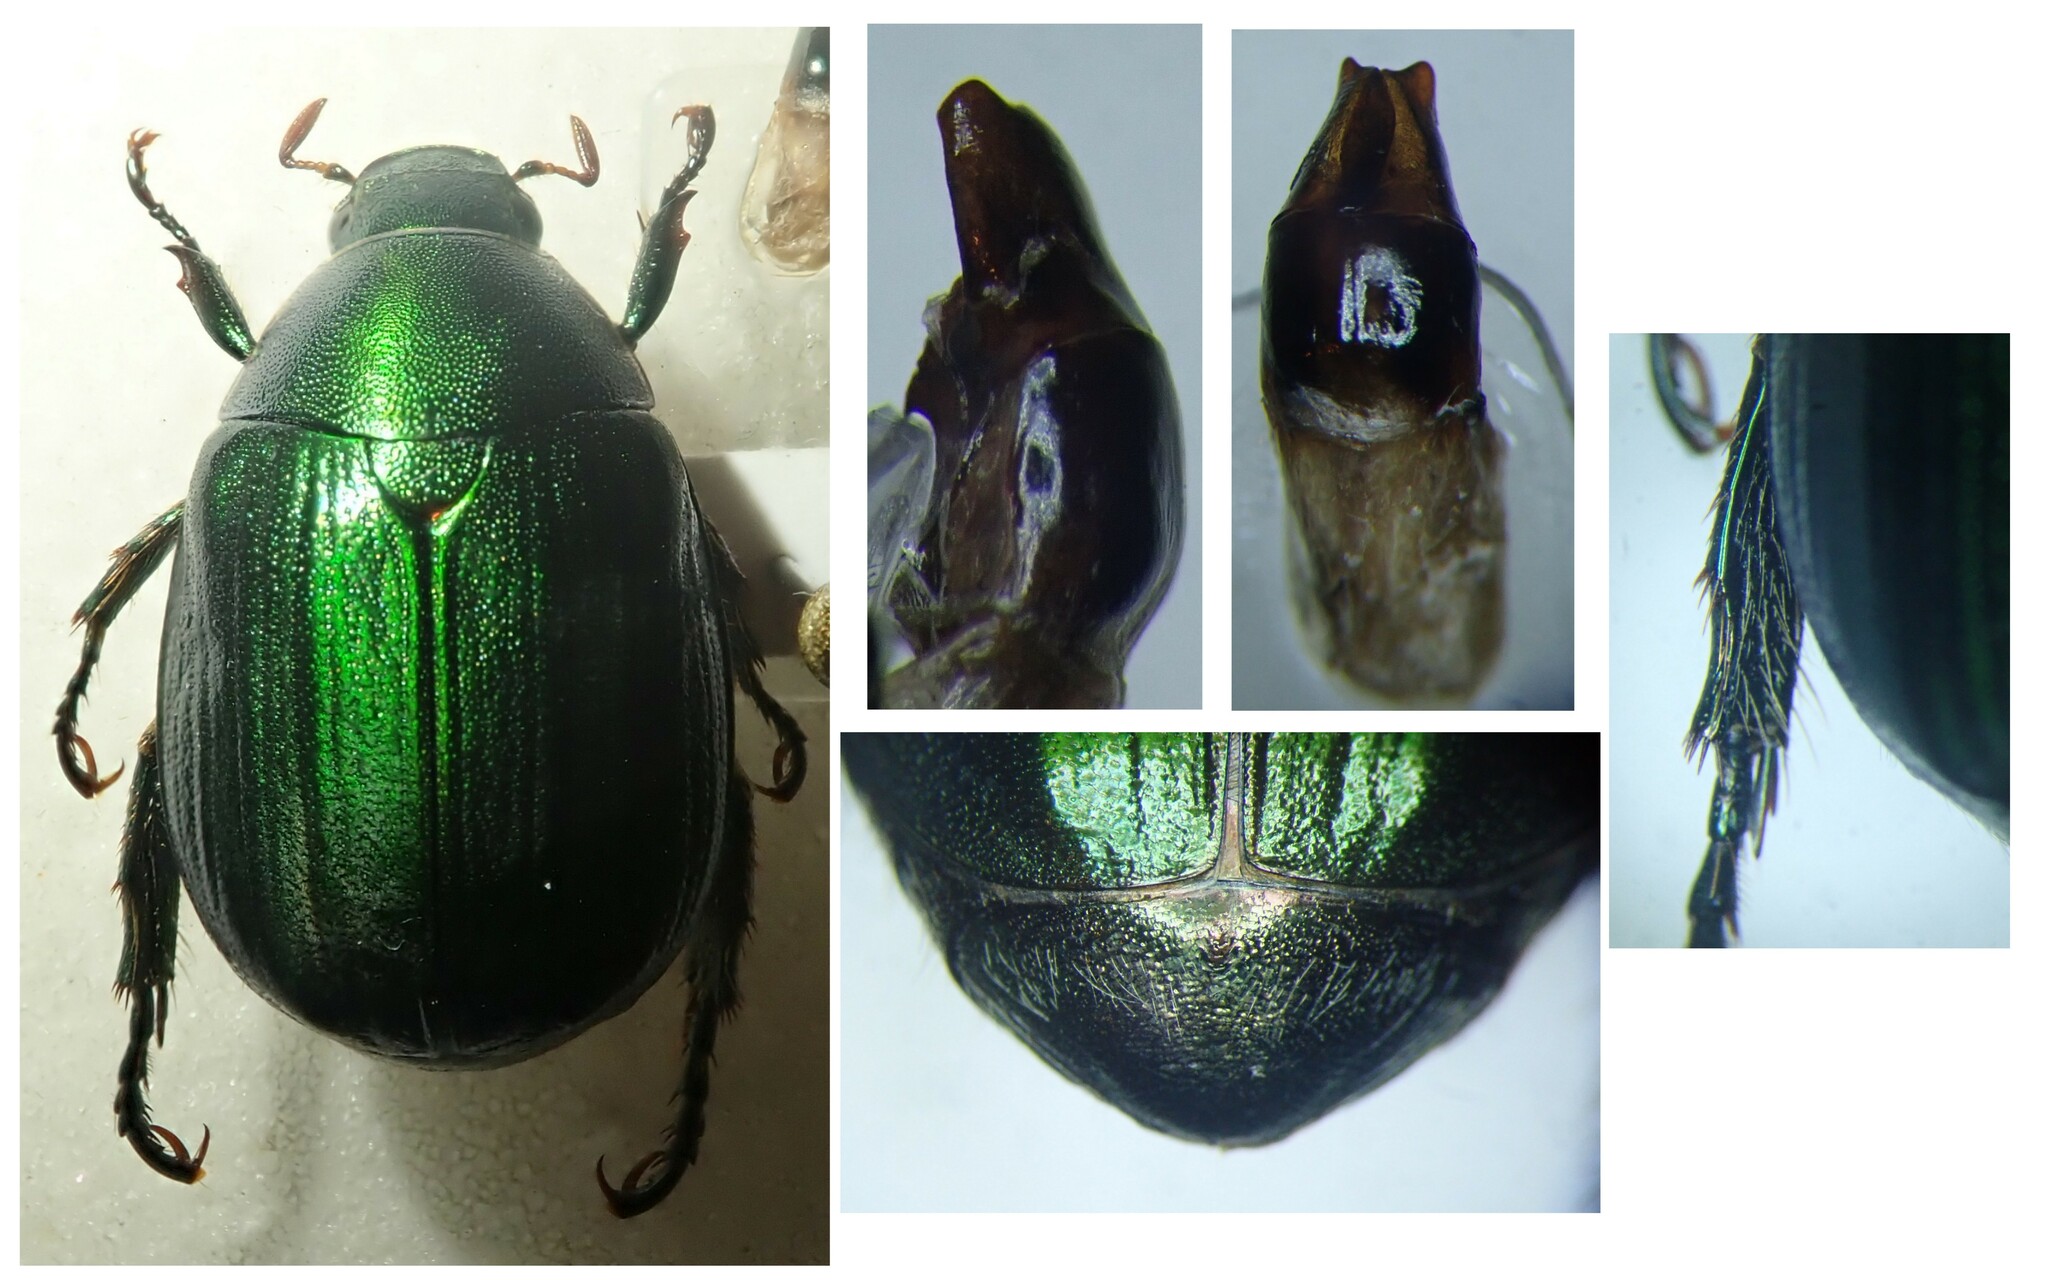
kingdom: Animalia
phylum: Arthropoda
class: Insecta
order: Coleoptera
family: Scarabaeidae
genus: Anomala
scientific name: Anomala ausonia
